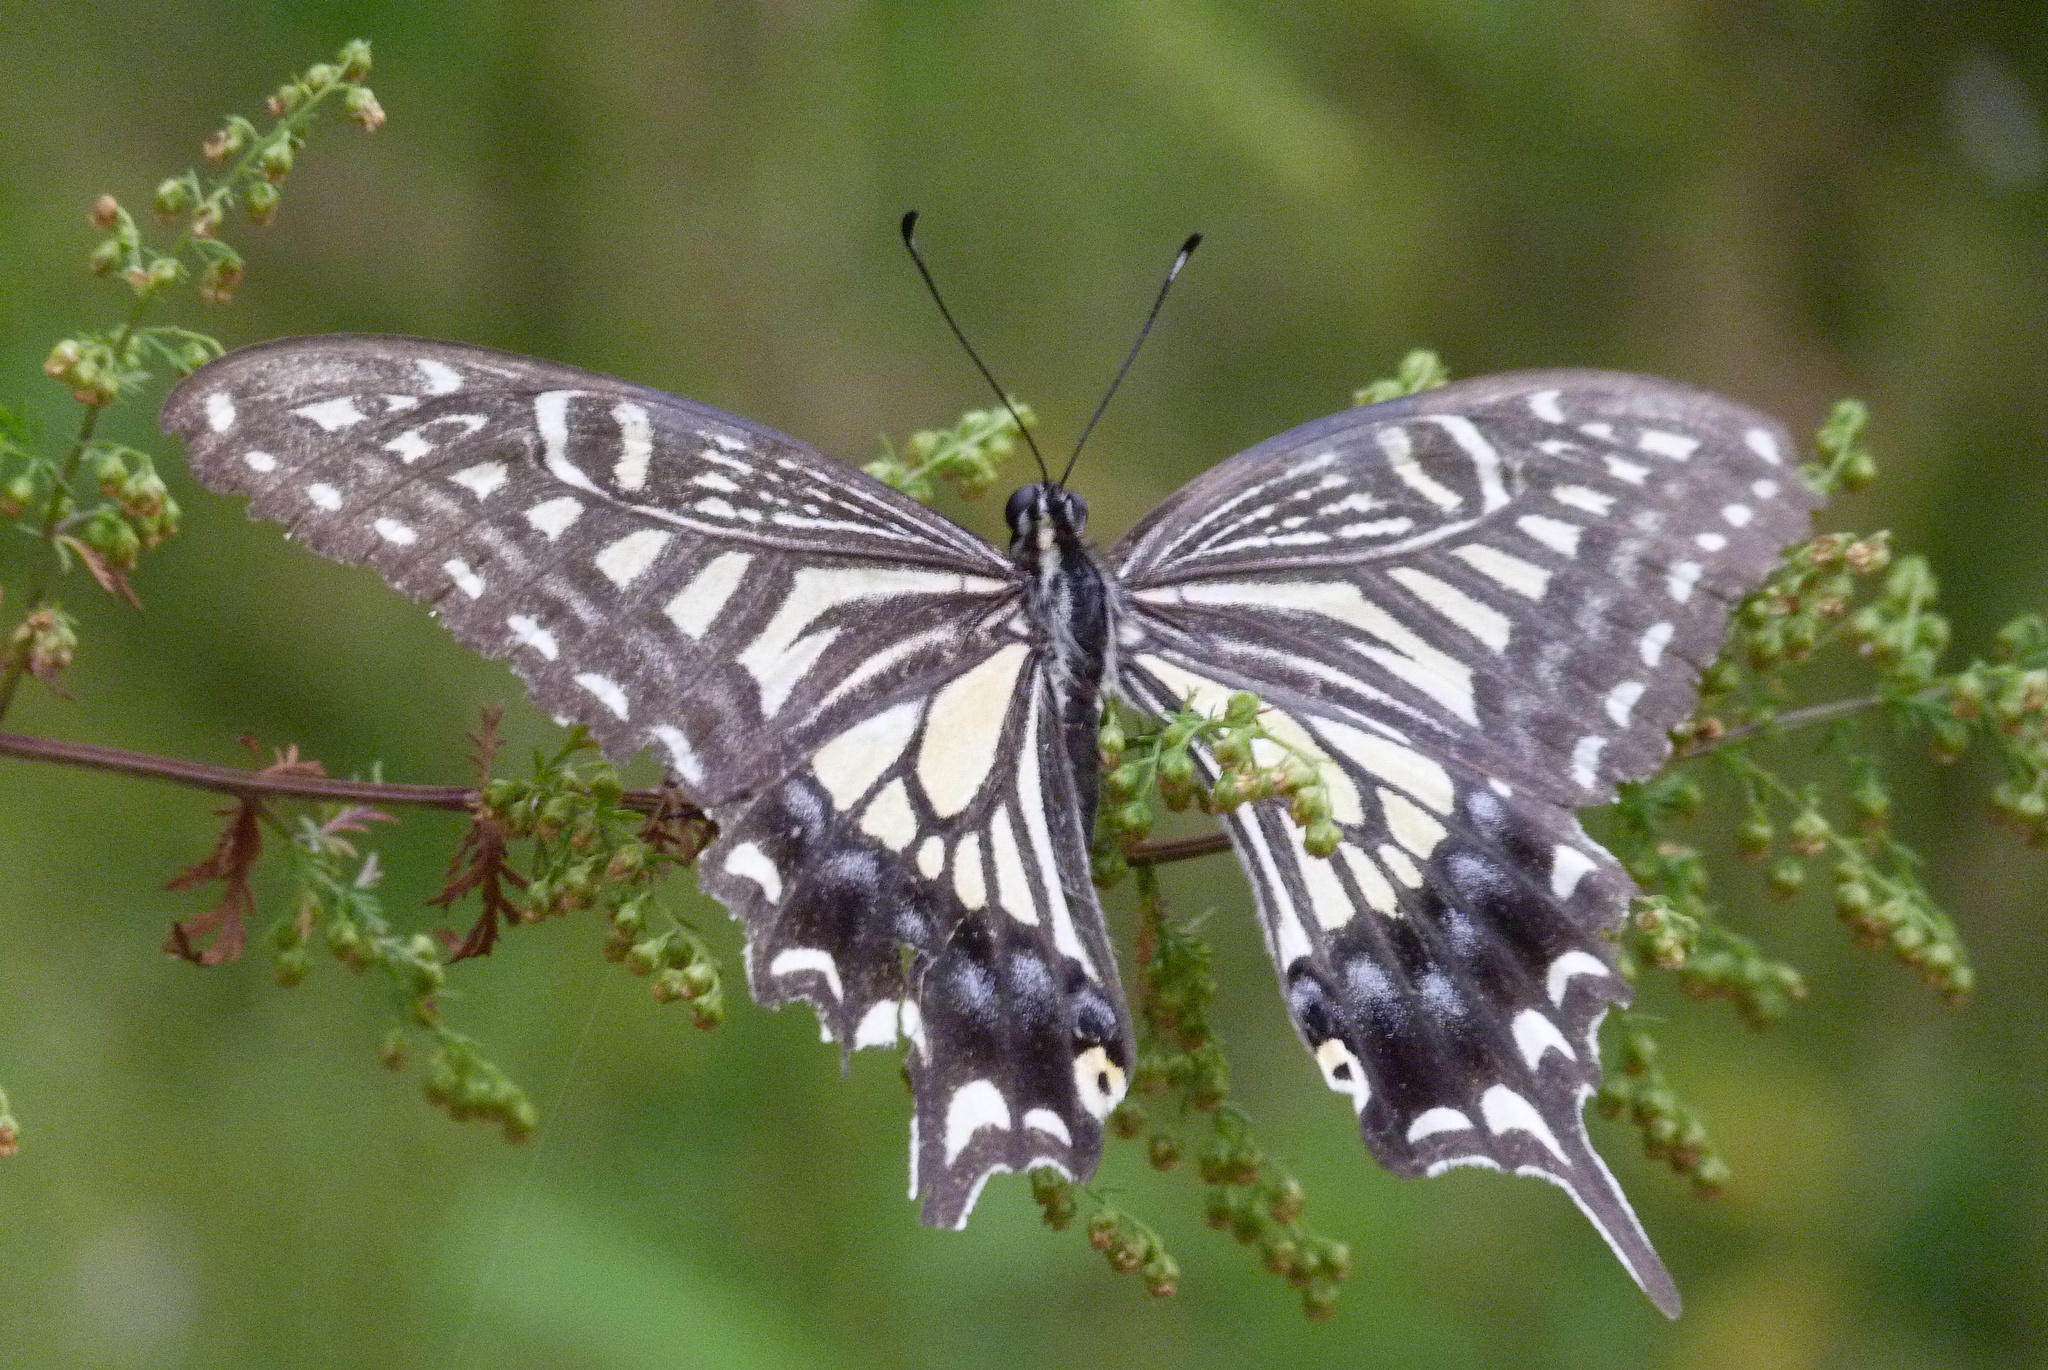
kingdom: Animalia
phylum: Arthropoda
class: Insecta
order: Lepidoptera
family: Papilionidae
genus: Papilio
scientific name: Papilio xuthus
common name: Asian swallowtail
